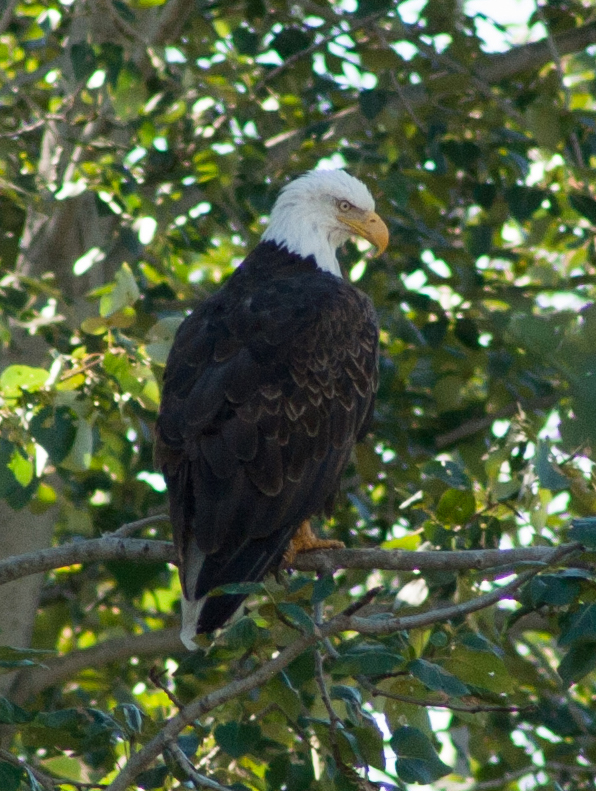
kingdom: Animalia
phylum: Chordata
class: Aves
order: Accipitriformes
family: Accipitridae
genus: Haliaeetus
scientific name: Haliaeetus leucocephalus
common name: Bald eagle
